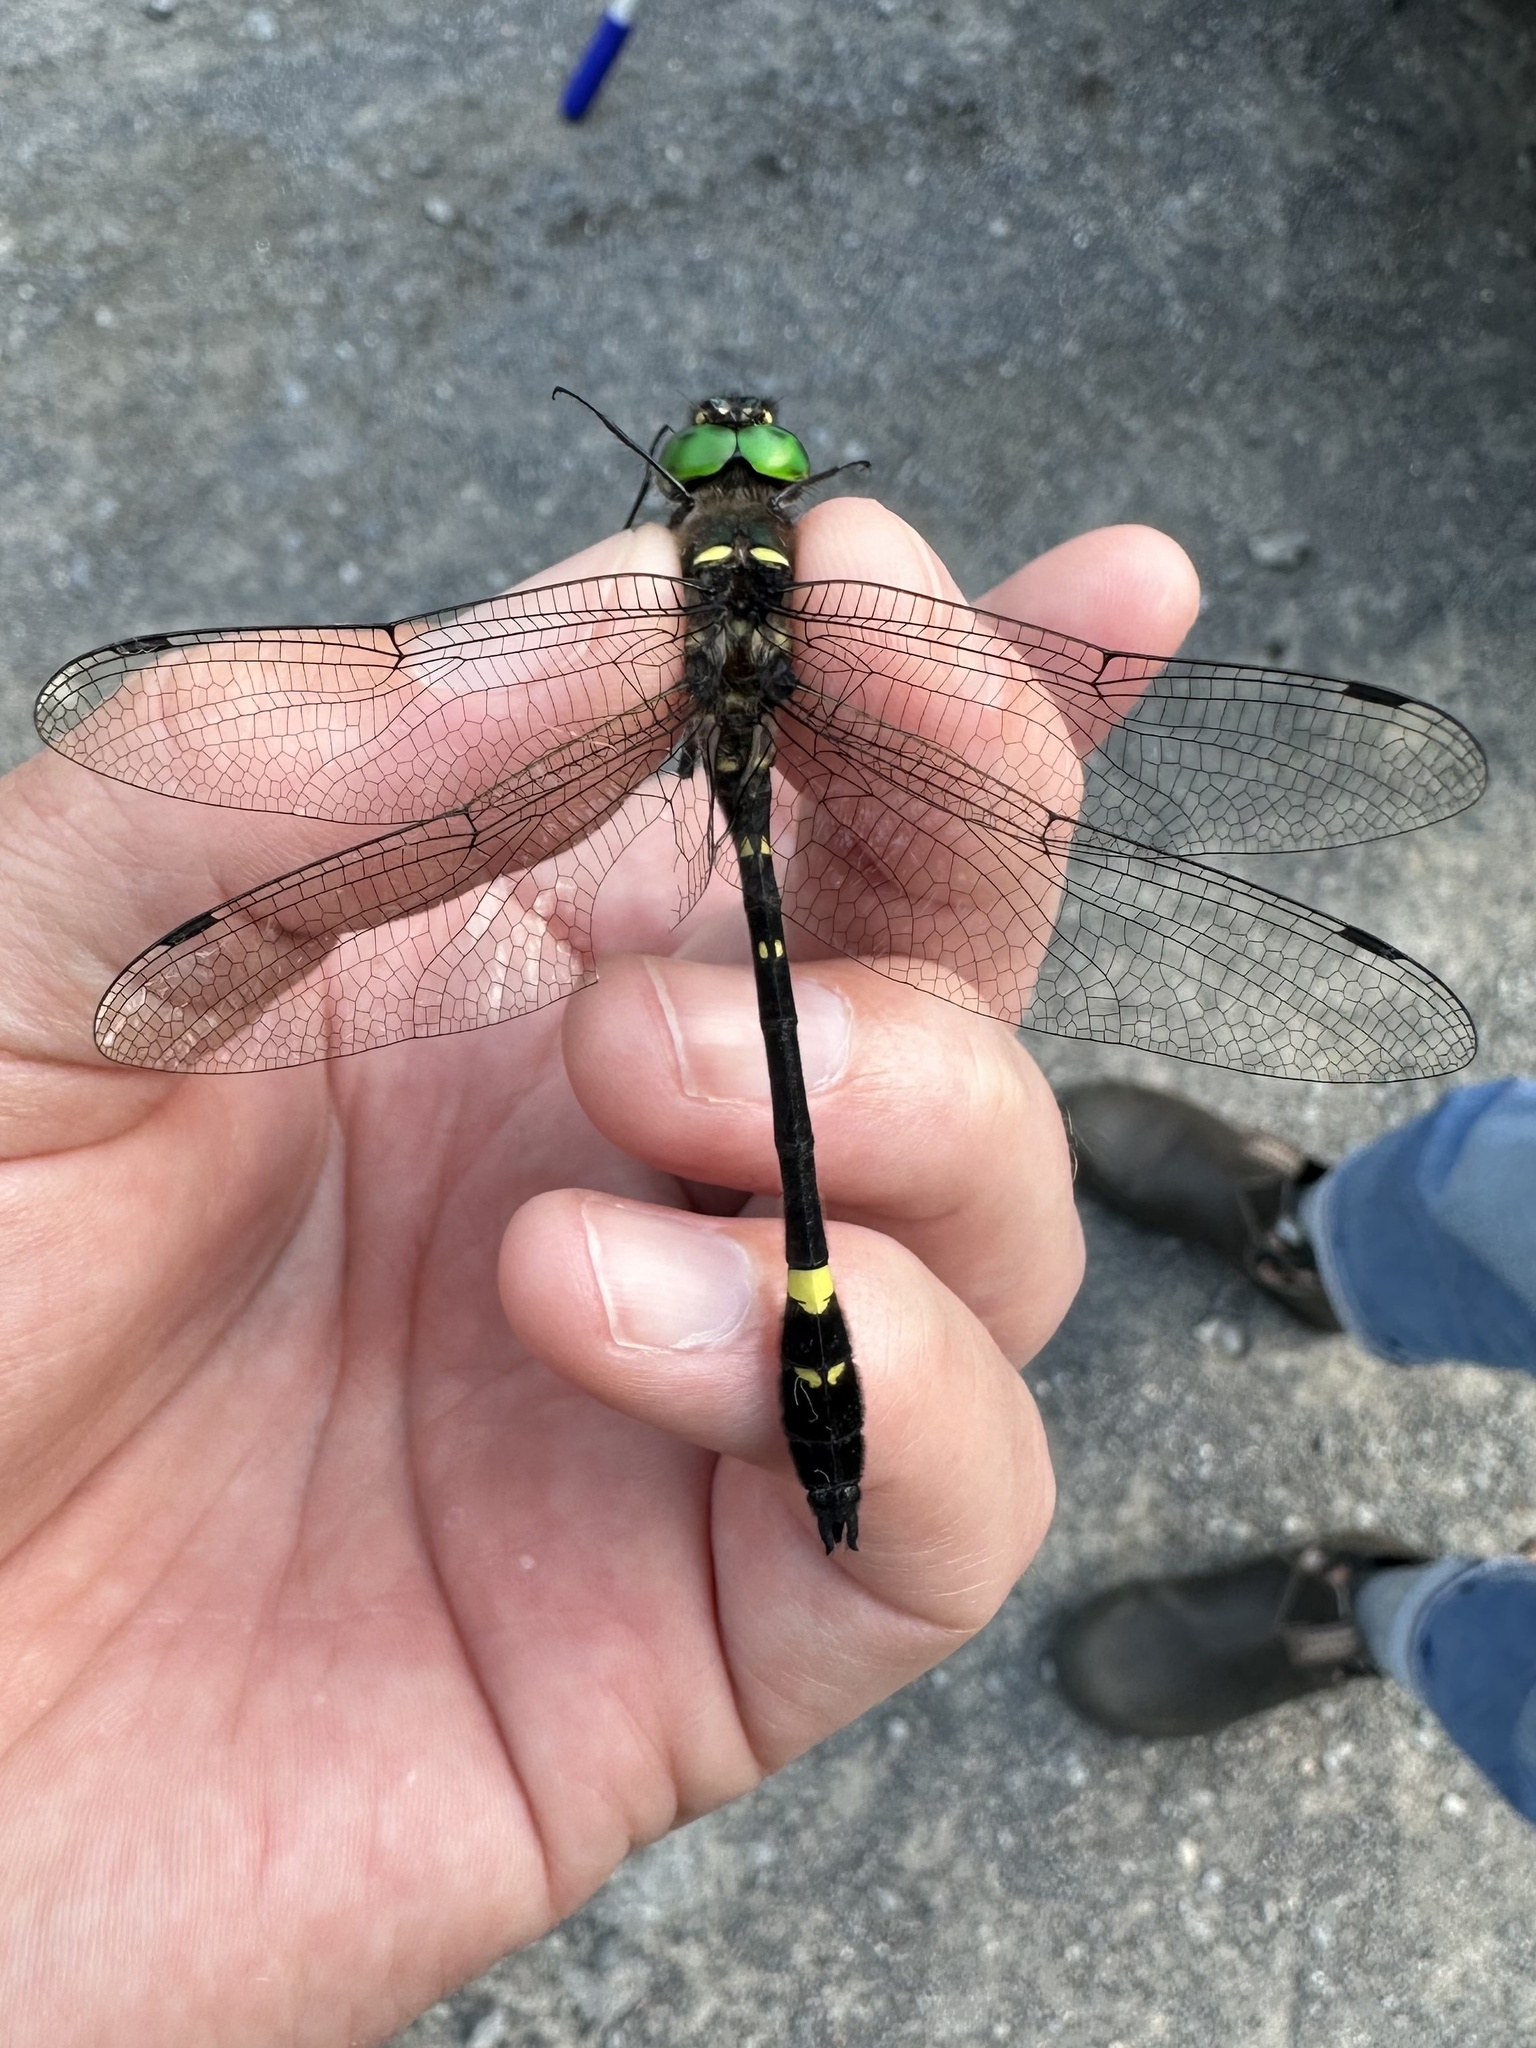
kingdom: Animalia
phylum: Arthropoda
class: Insecta
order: Odonata
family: Macromiidae
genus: Macromia
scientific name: Macromia illinoiensis
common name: Swift river cruiser
